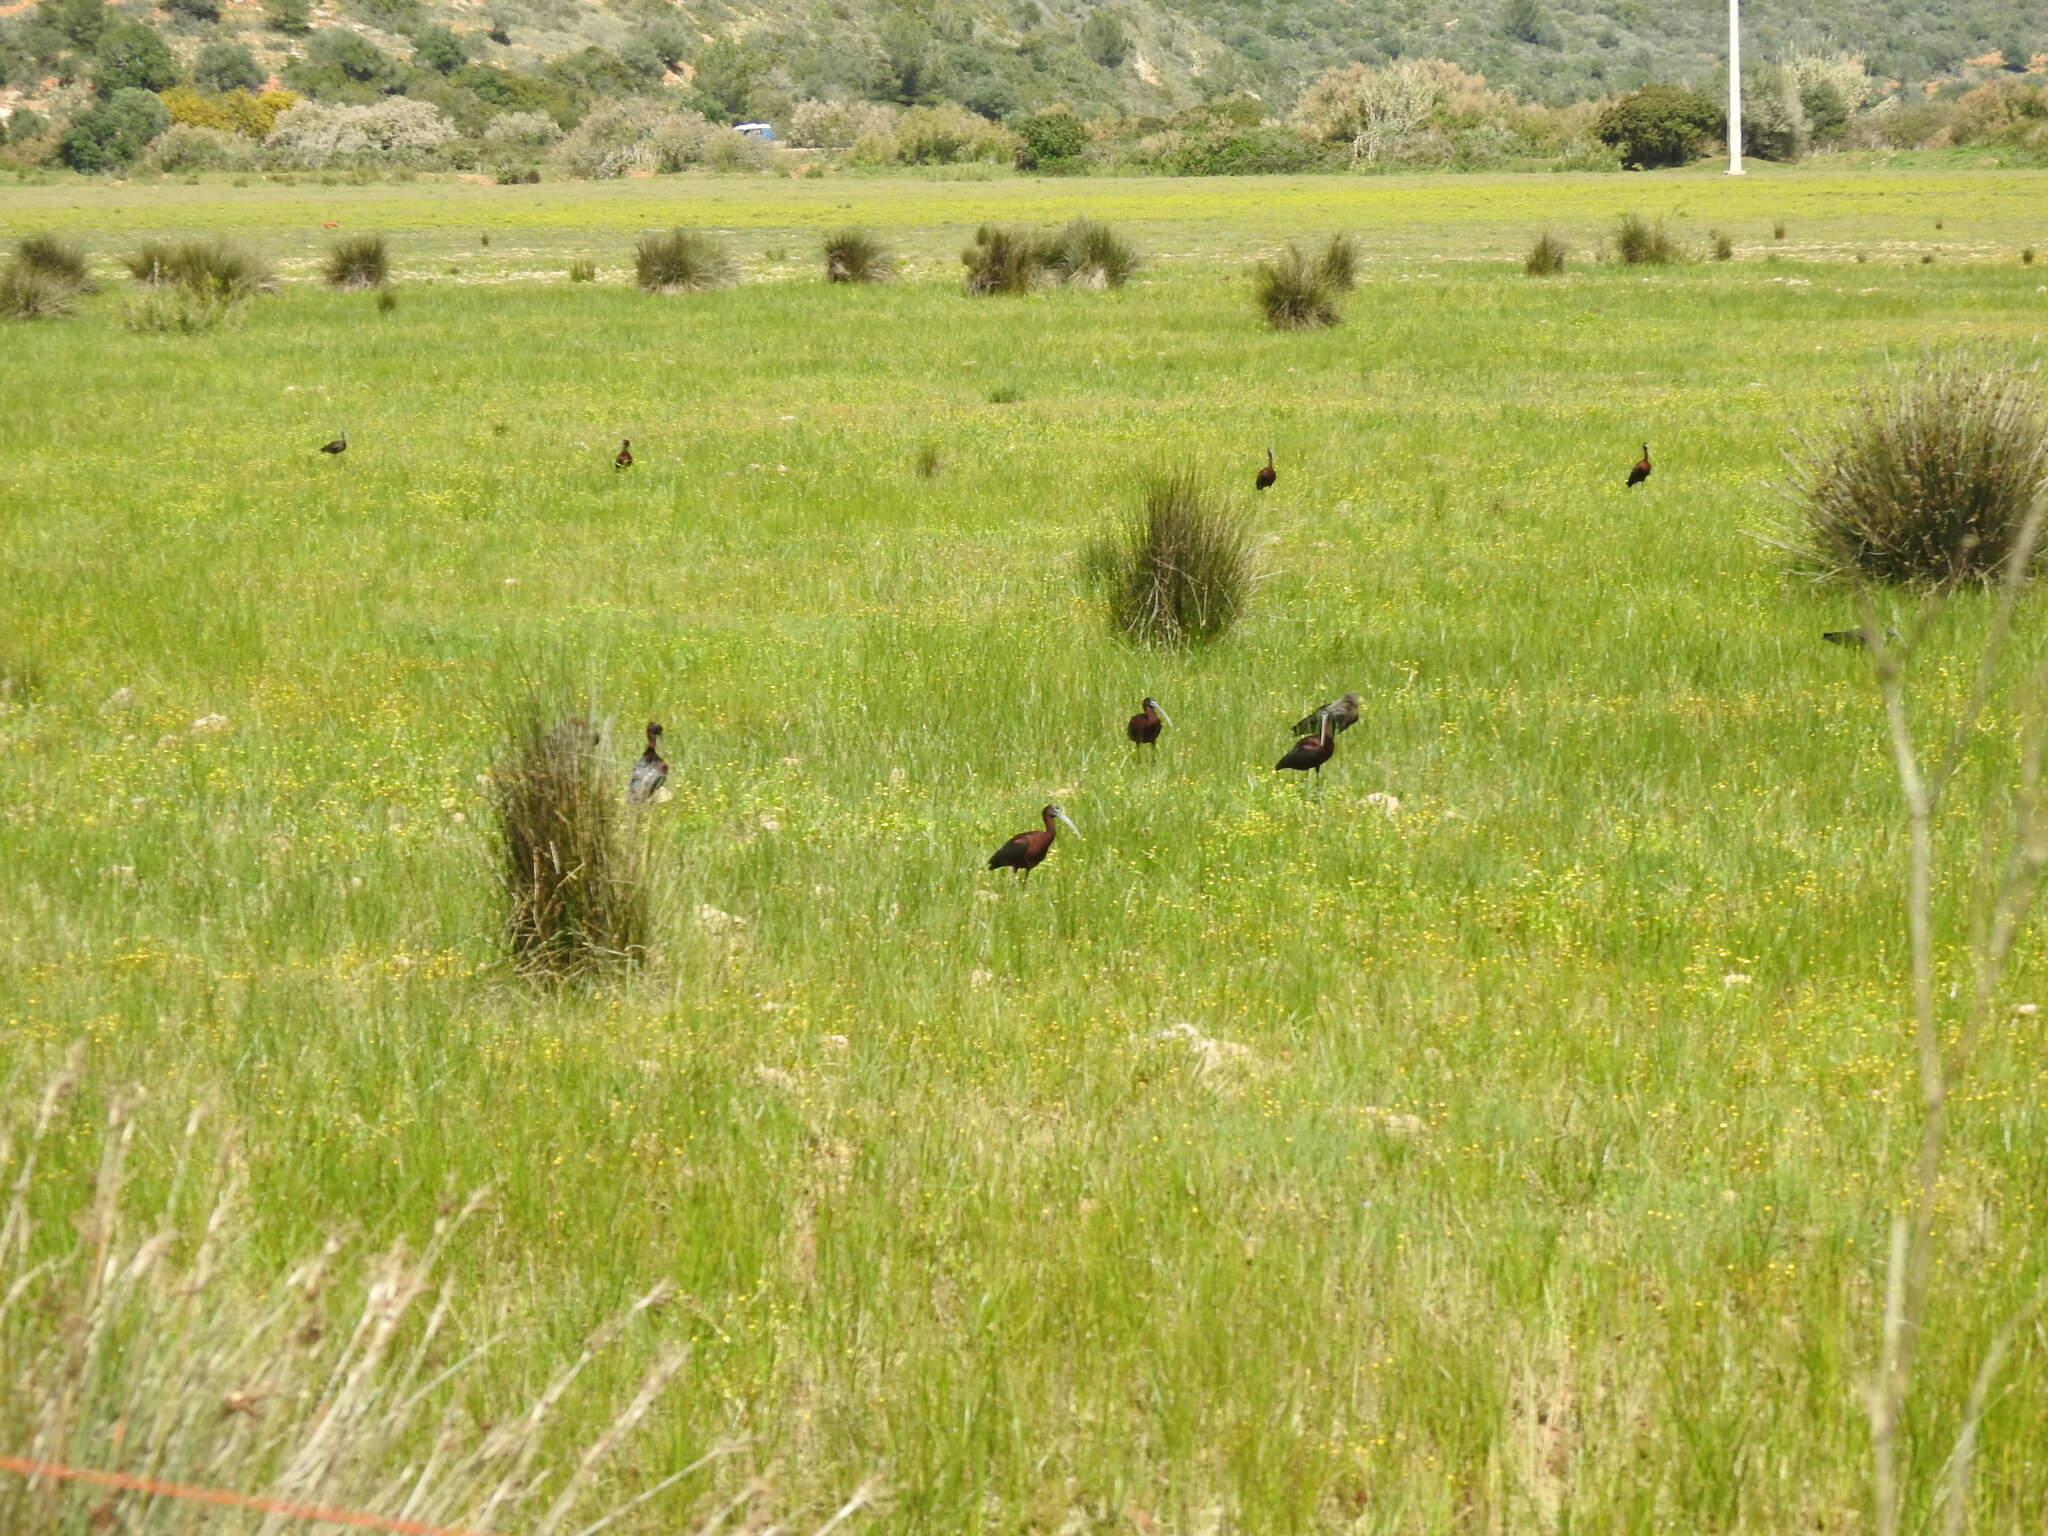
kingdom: Animalia
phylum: Chordata
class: Aves
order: Pelecaniformes
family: Threskiornithidae
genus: Plegadis
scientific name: Plegadis falcinellus
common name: Glossy ibis
